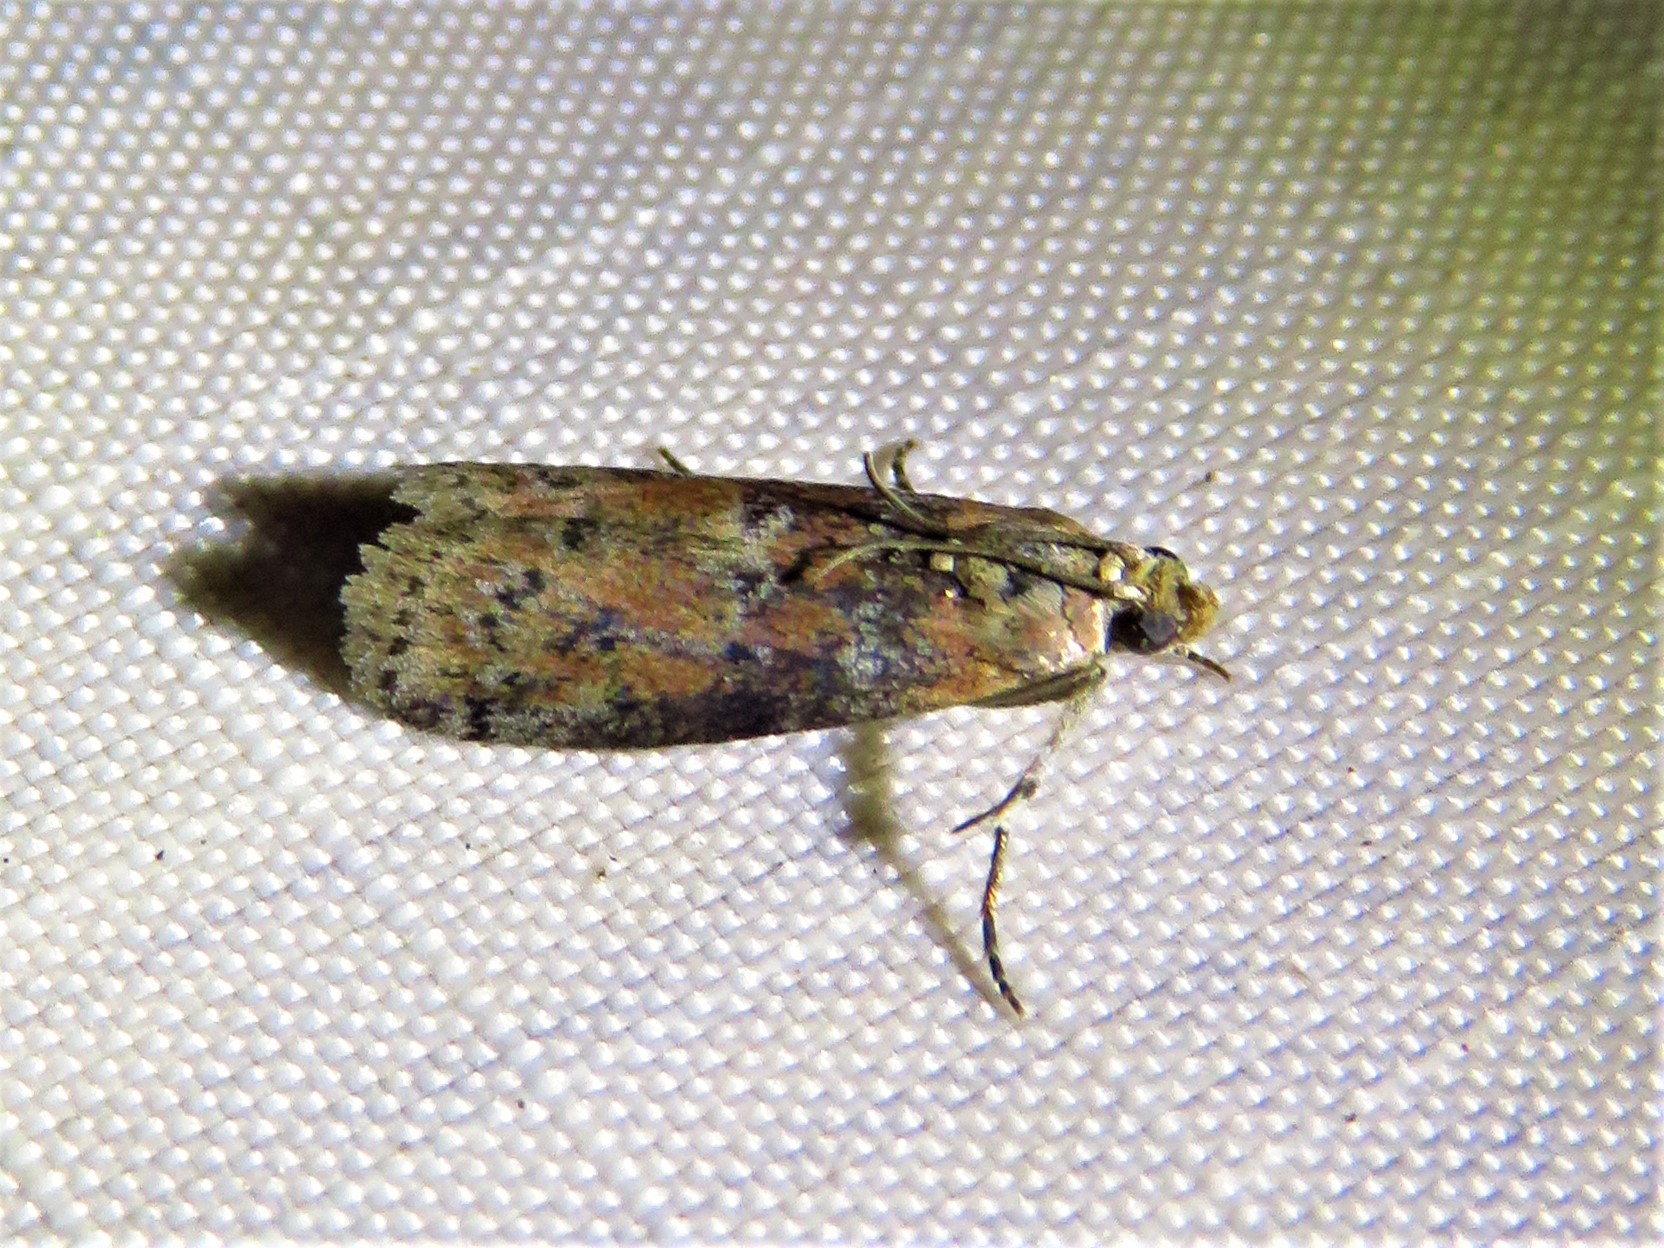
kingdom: Animalia
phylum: Arthropoda
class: Insecta
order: Lepidoptera
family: Pyralidae
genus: Sciota
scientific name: Sciota celtidella
